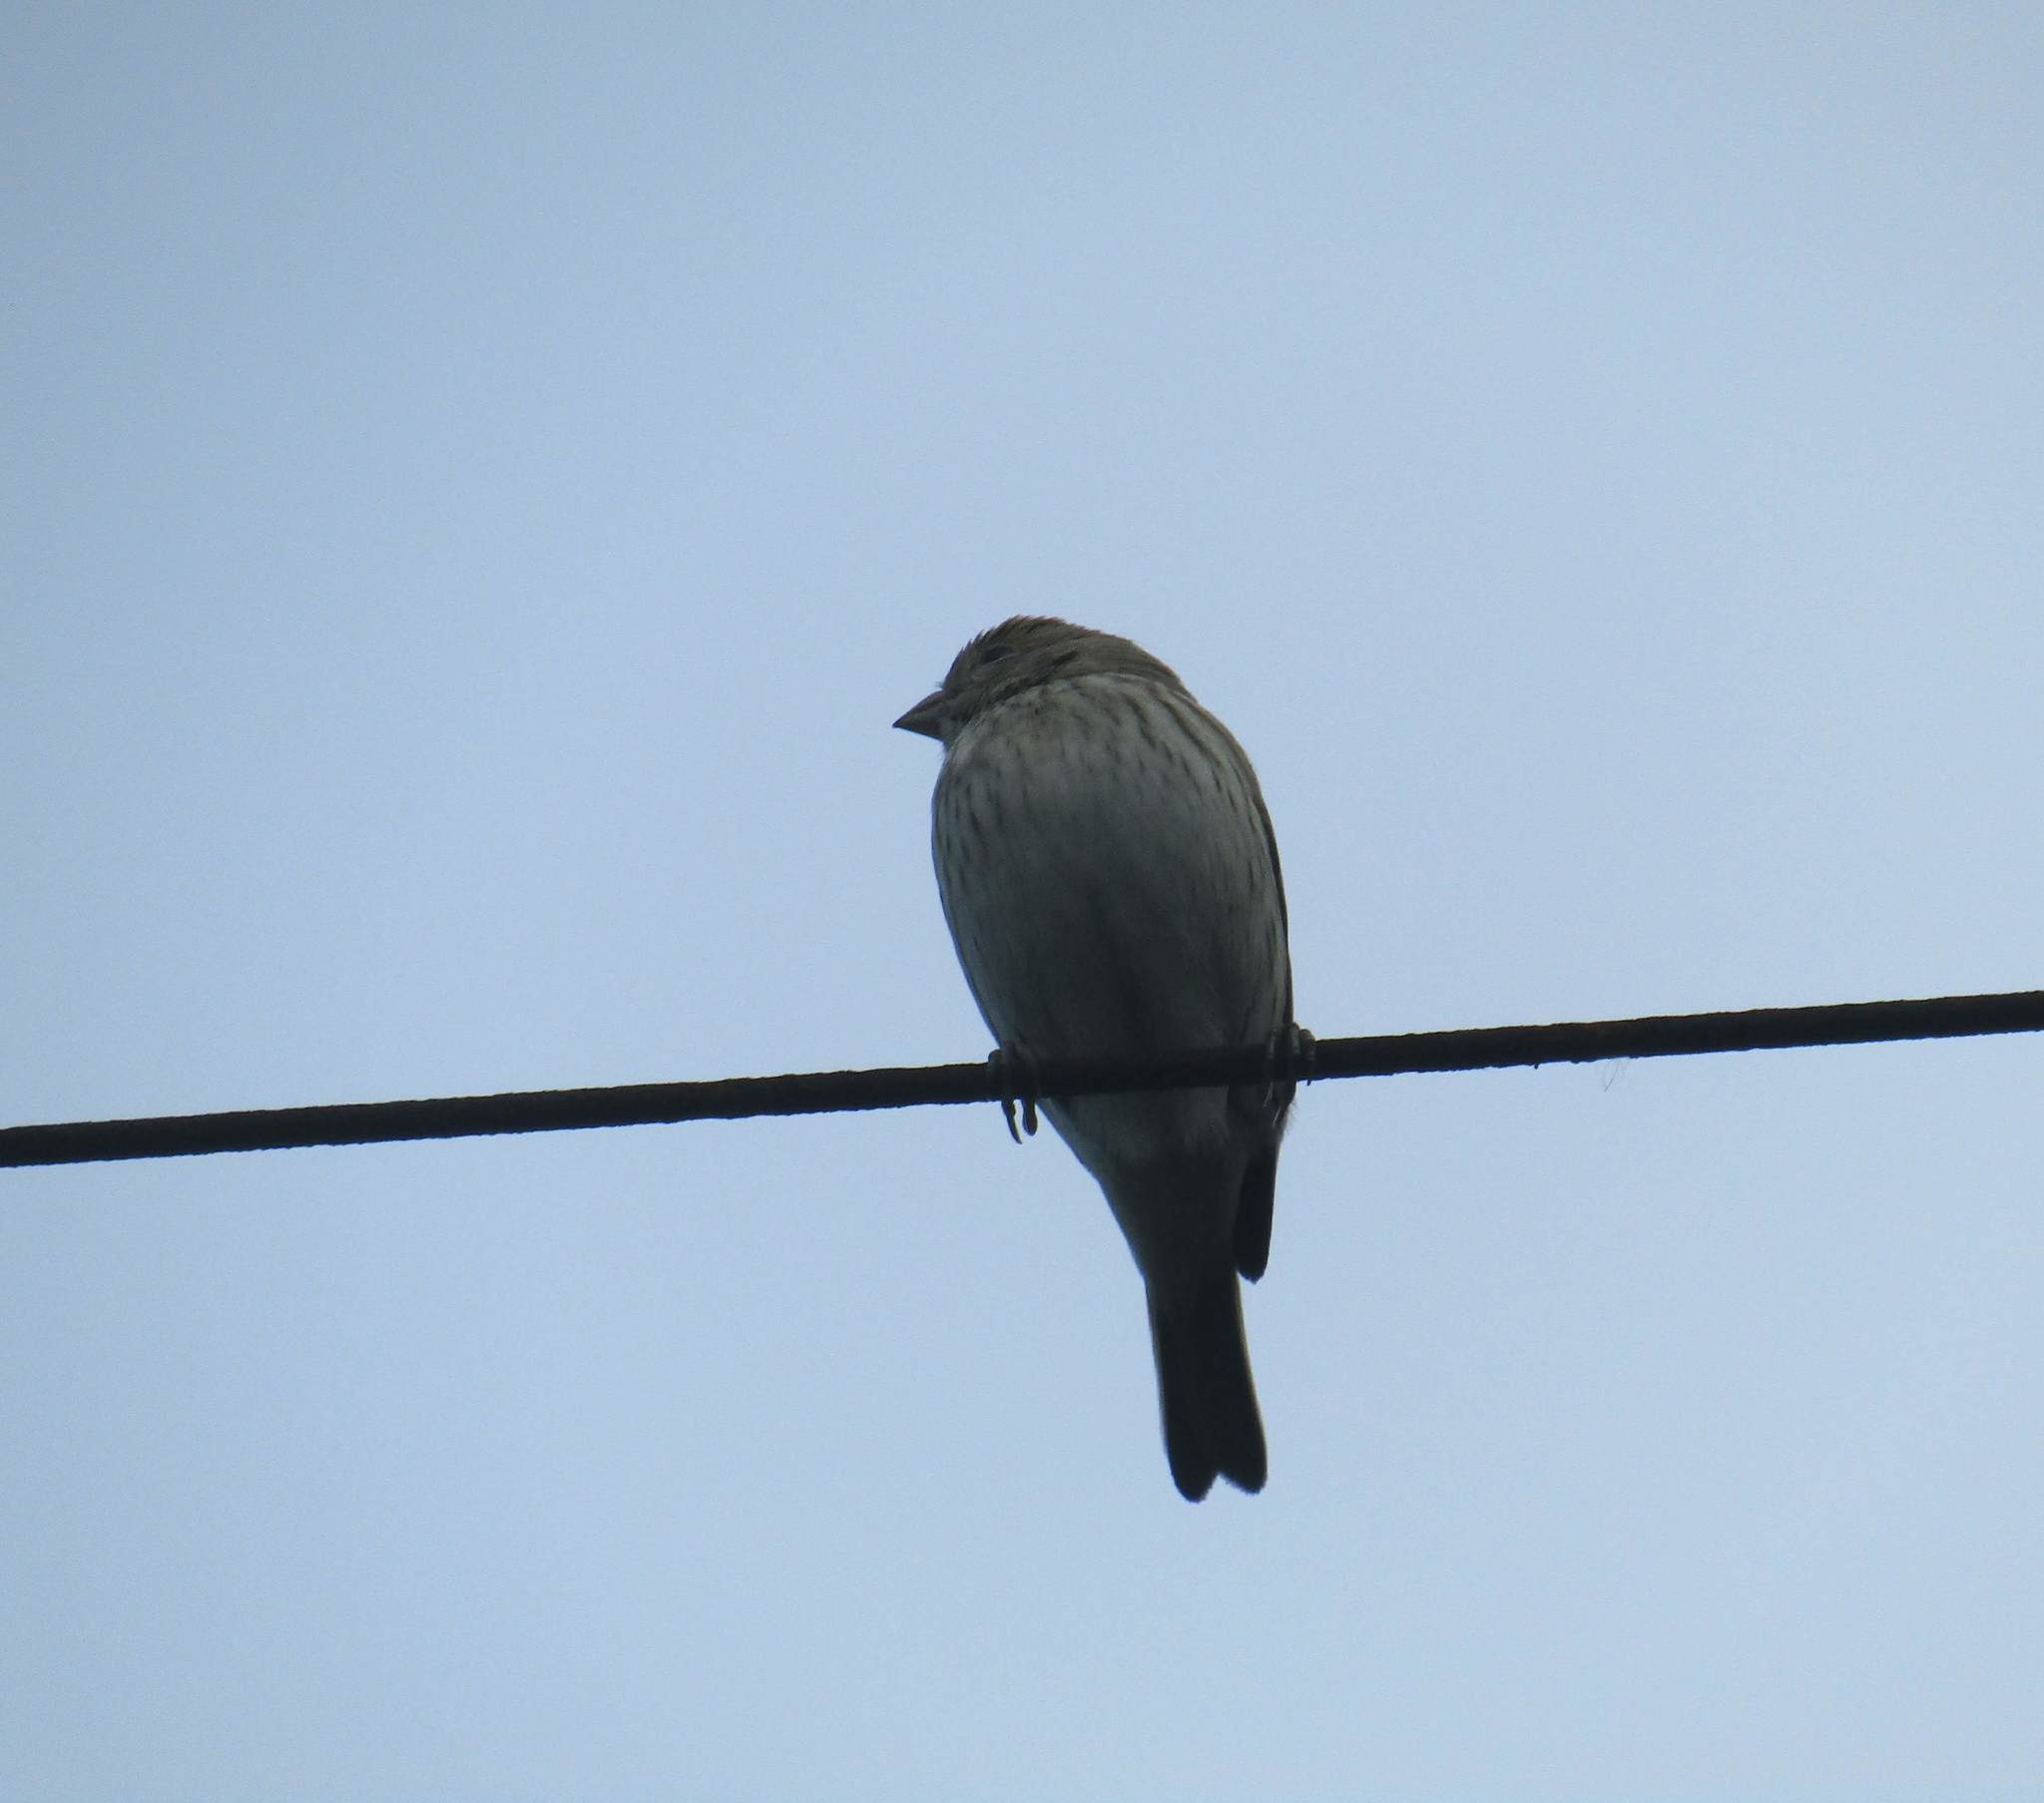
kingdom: Animalia
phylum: Chordata
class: Aves
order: Passeriformes
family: Thraupidae
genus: Sicalis
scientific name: Sicalis flaveola
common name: Saffron finch
